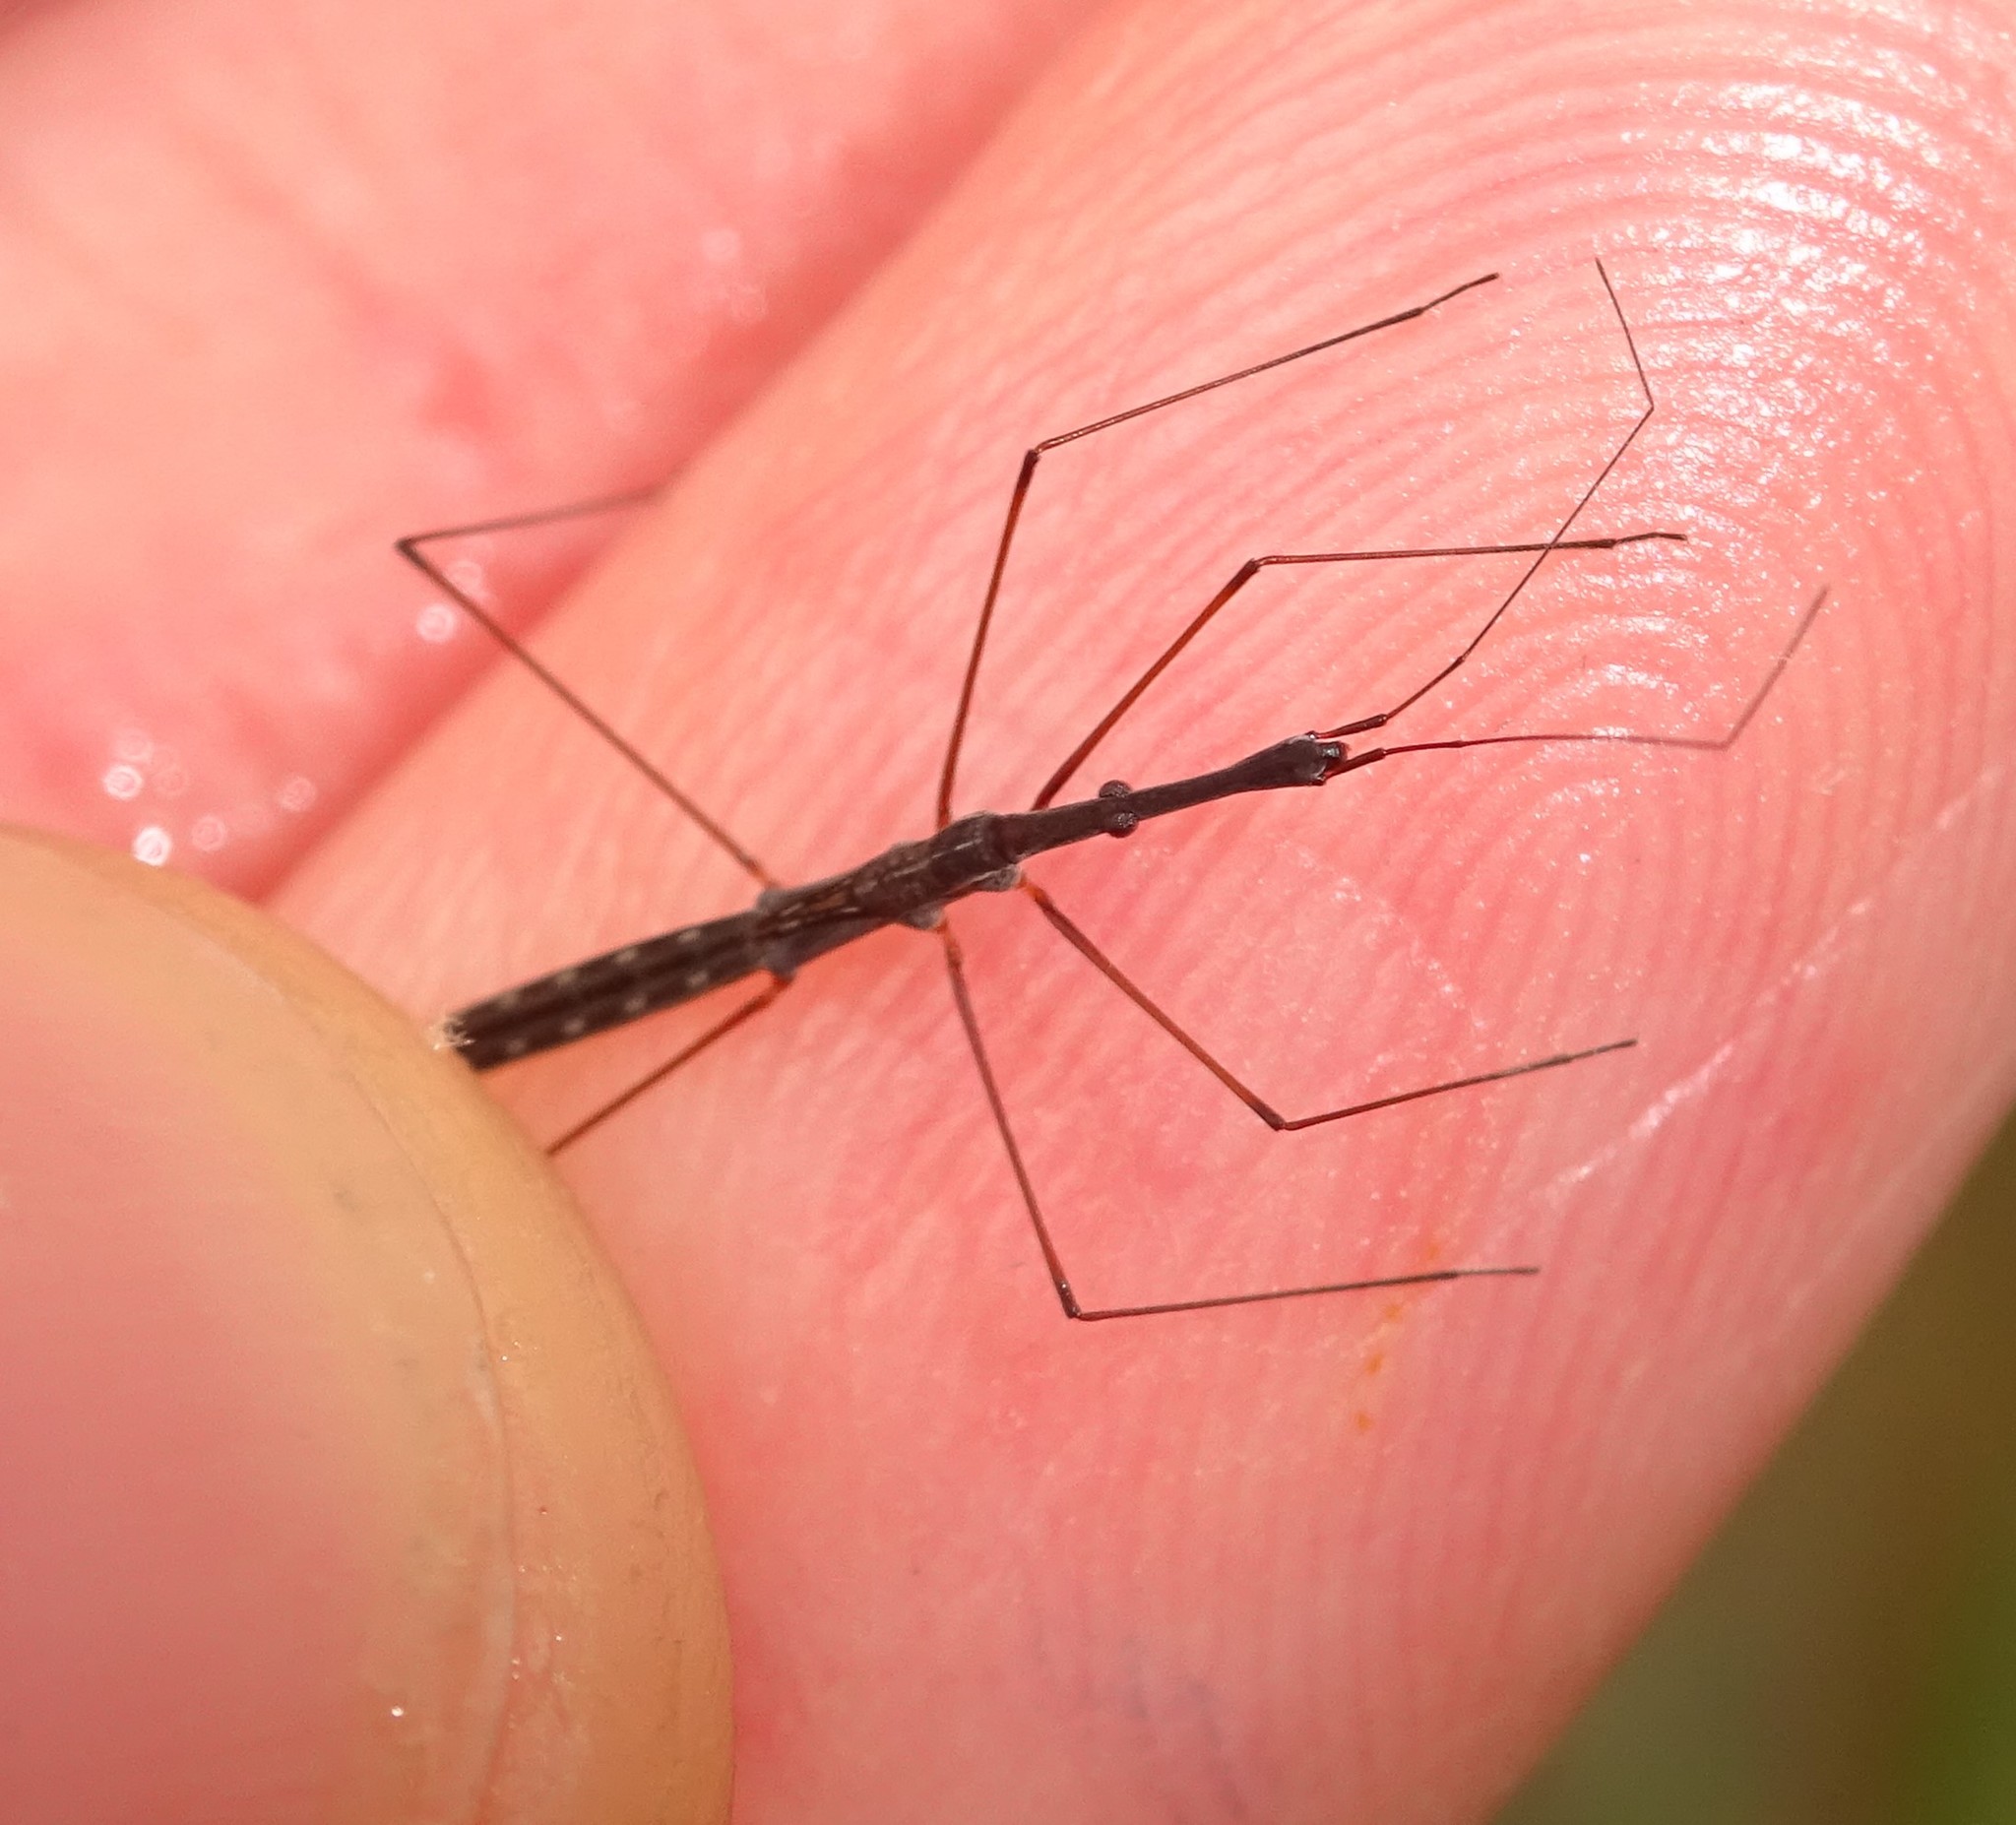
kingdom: Animalia
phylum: Arthropoda
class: Insecta
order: Hemiptera
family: Hydrometridae
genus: Hydrometra
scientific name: Hydrometra stagnorum
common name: Water measurer
